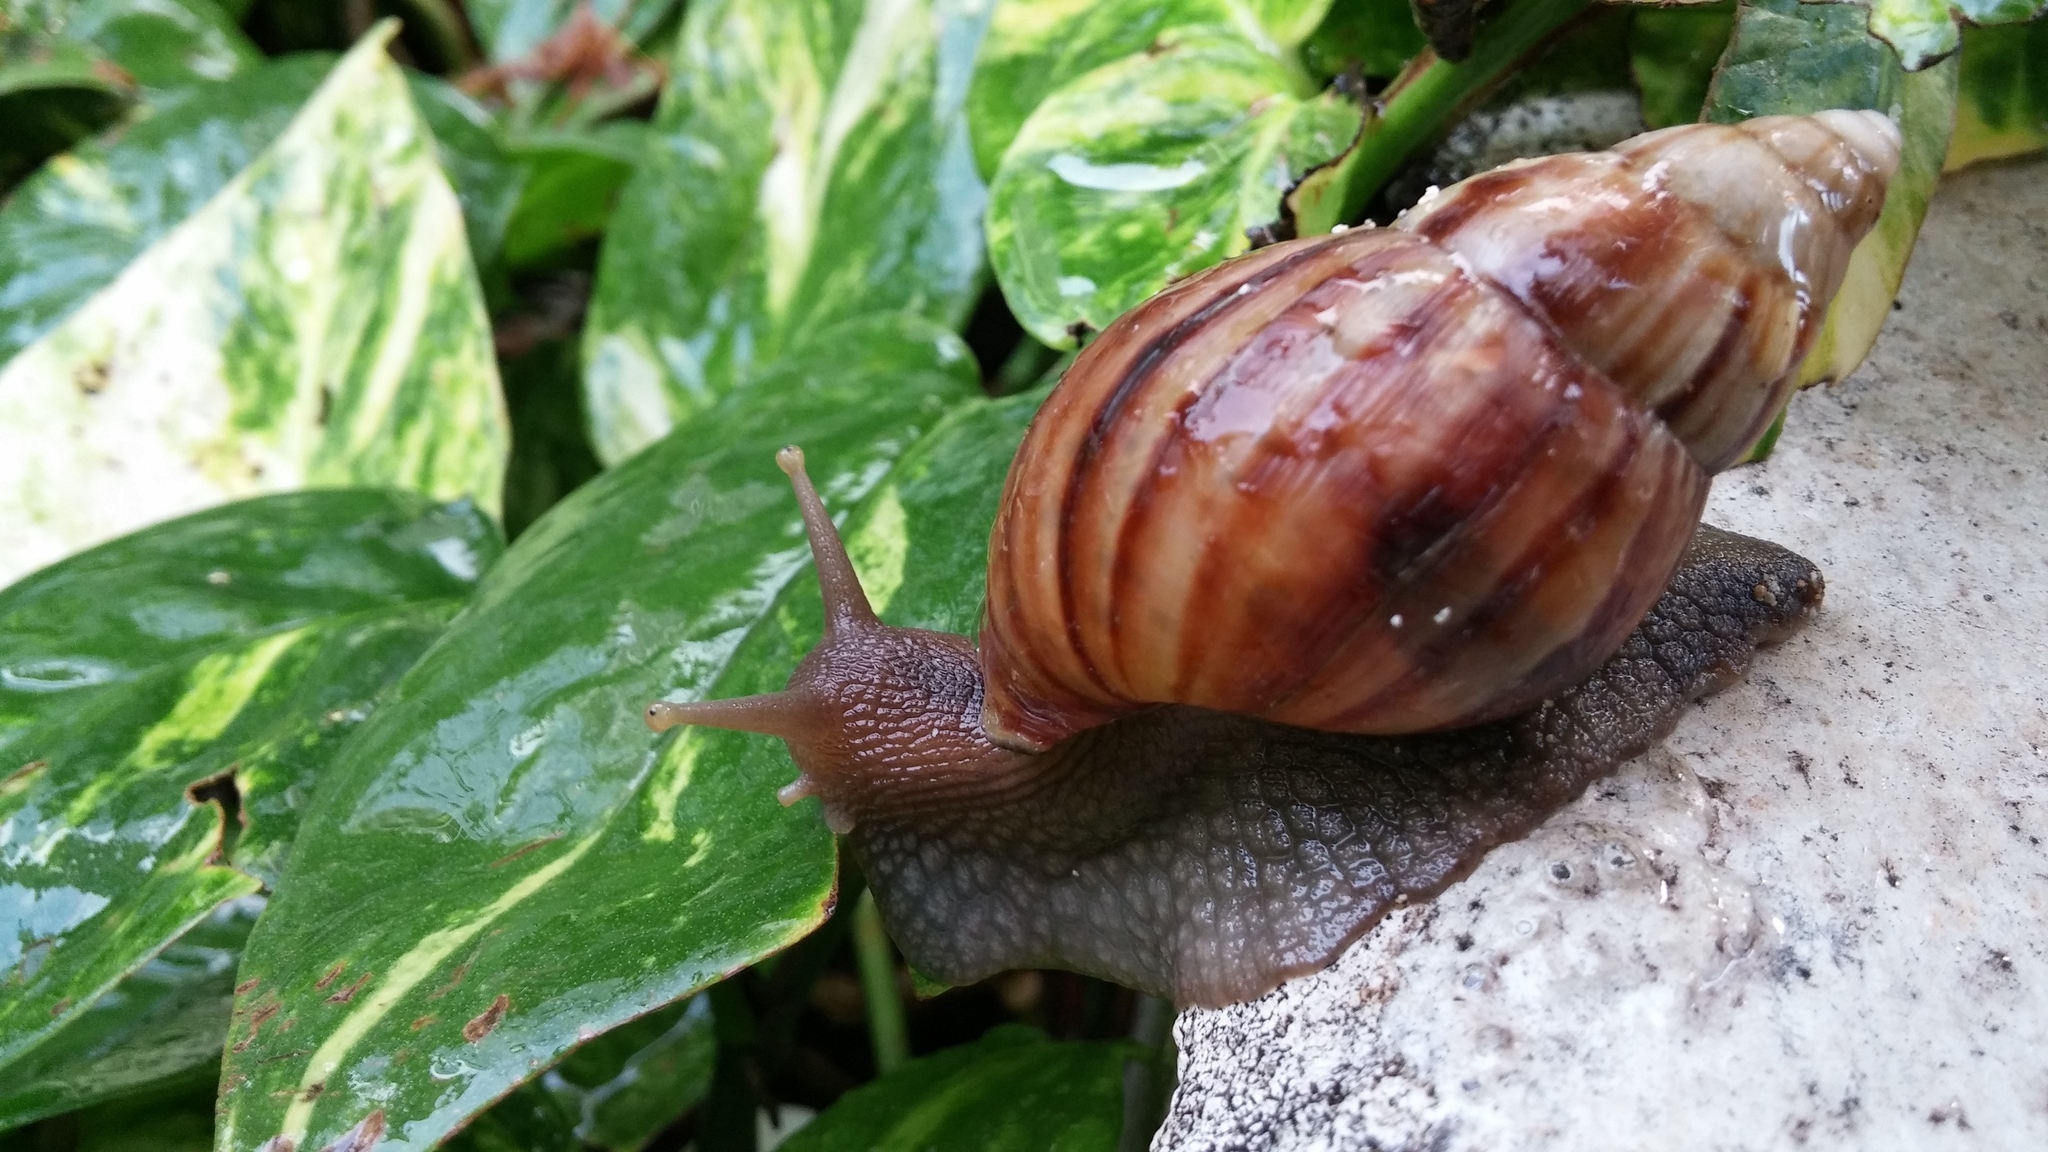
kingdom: Animalia
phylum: Mollusca
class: Gastropoda
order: Stylommatophora
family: Achatinidae
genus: Lissachatina
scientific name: Lissachatina fulica
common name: Giant african snail
